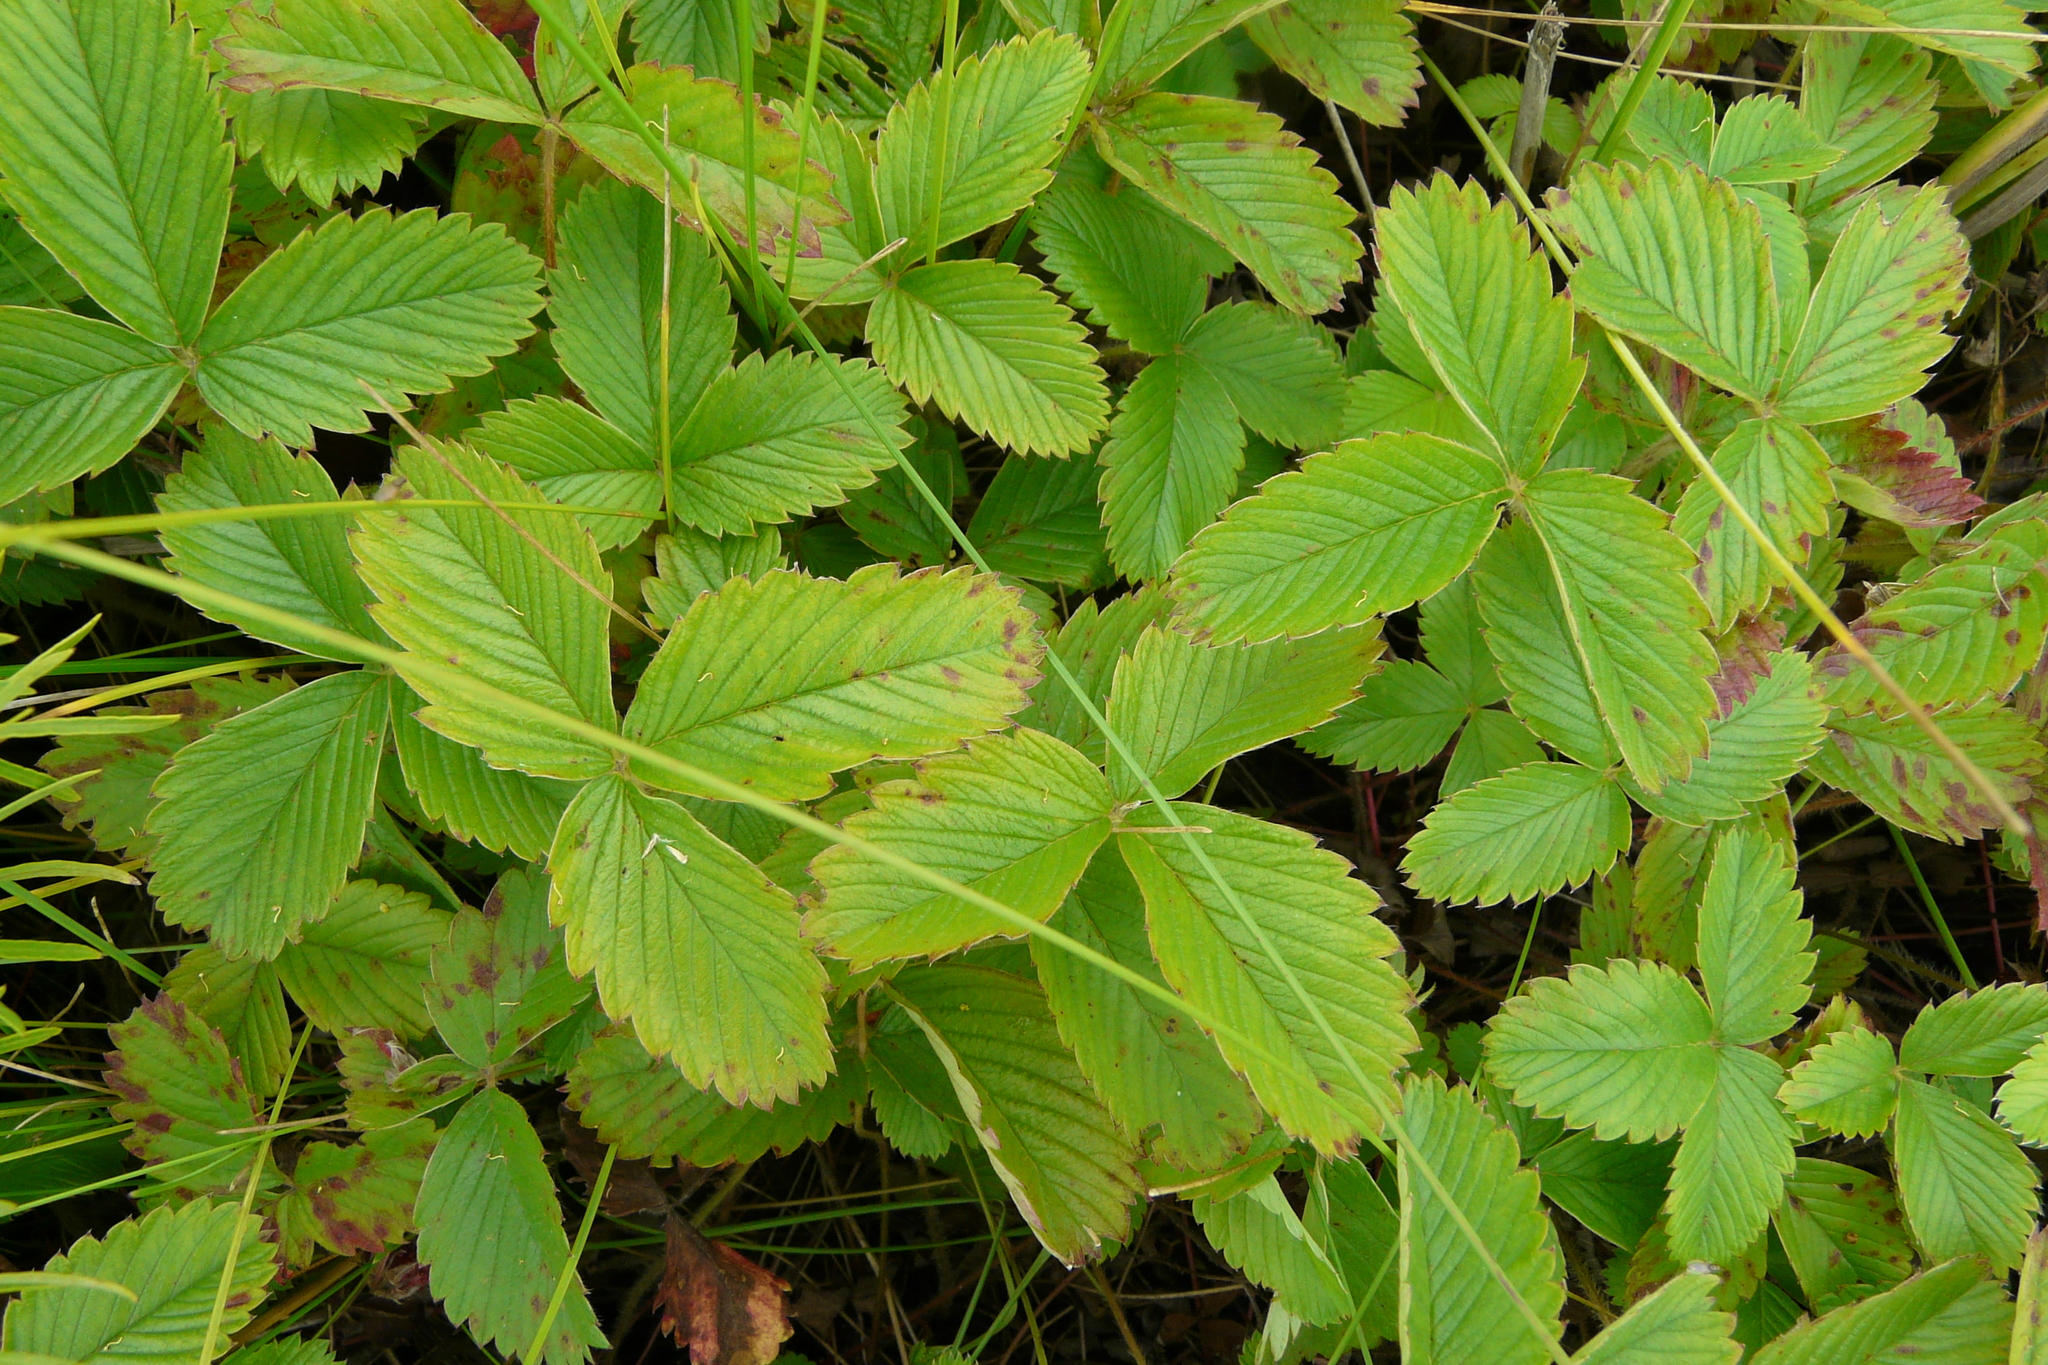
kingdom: Plantae
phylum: Tracheophyta
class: Magnoliopsida
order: Rosales
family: Rosaceae
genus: Fragaria
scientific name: Fragaria viridis
